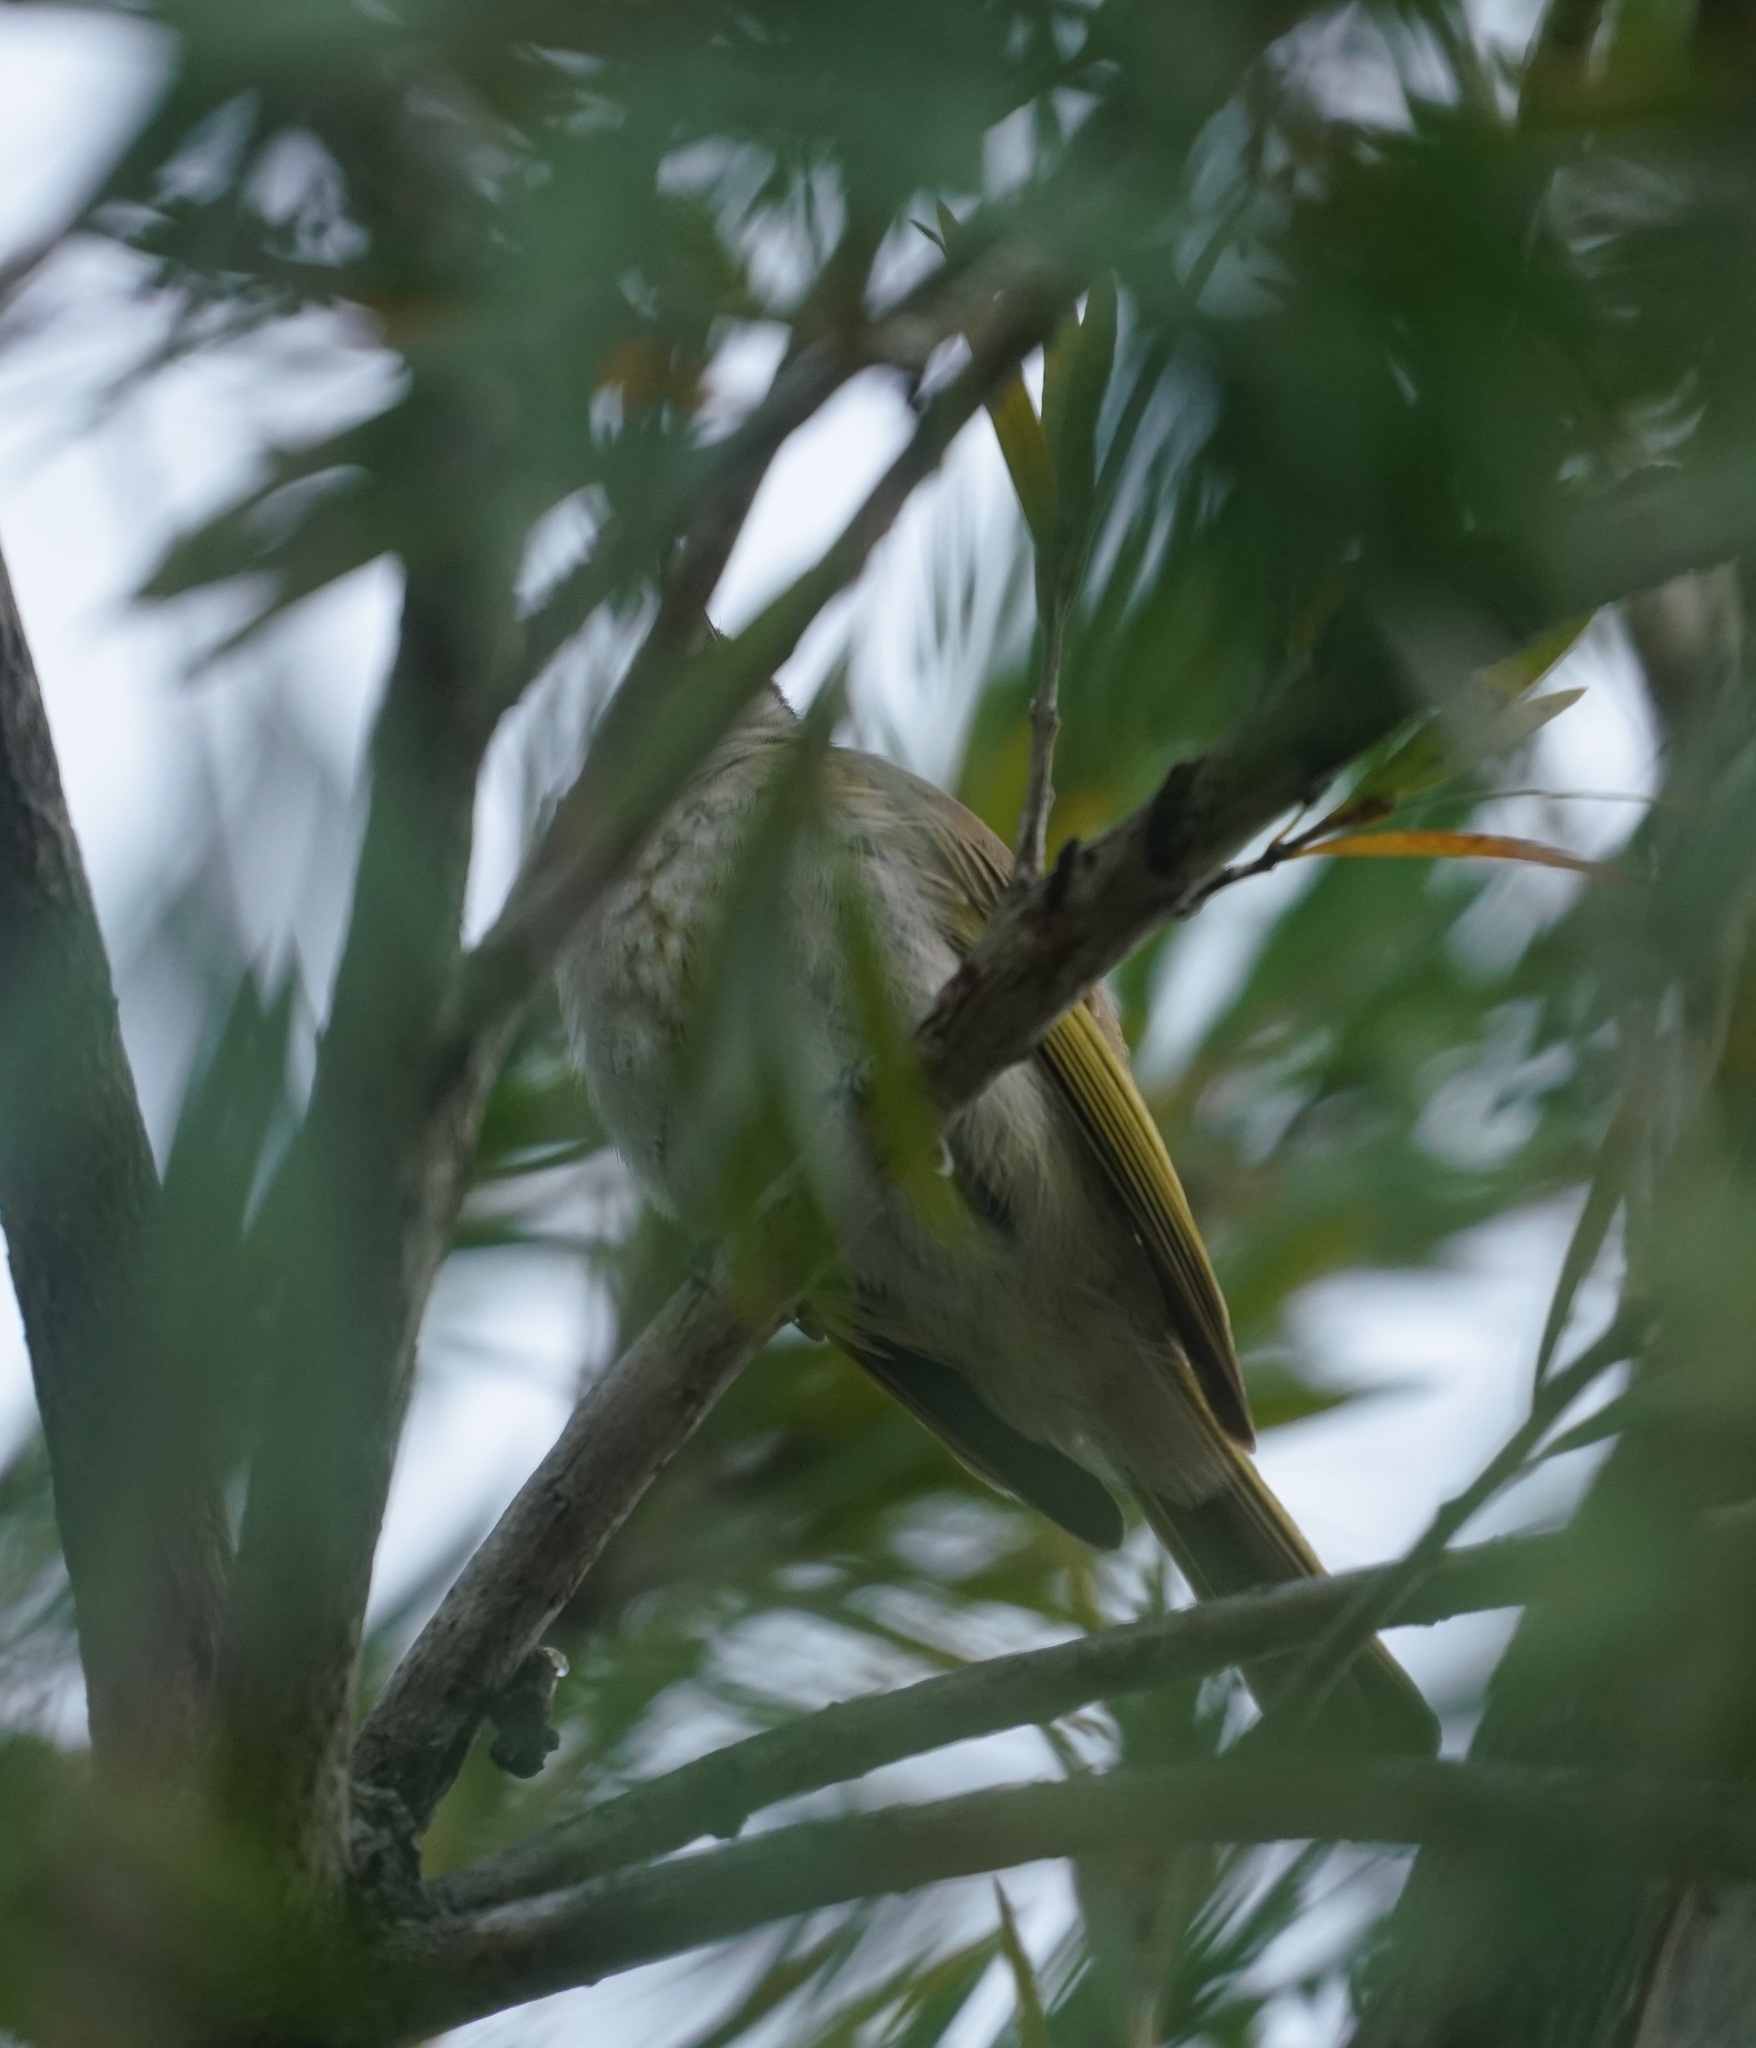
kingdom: Animalia
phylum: Chordata
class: Aves
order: Passeriformes
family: Meliphagidae
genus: Lichmera
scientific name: Lichmera indistincta
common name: Brown honeyeater
